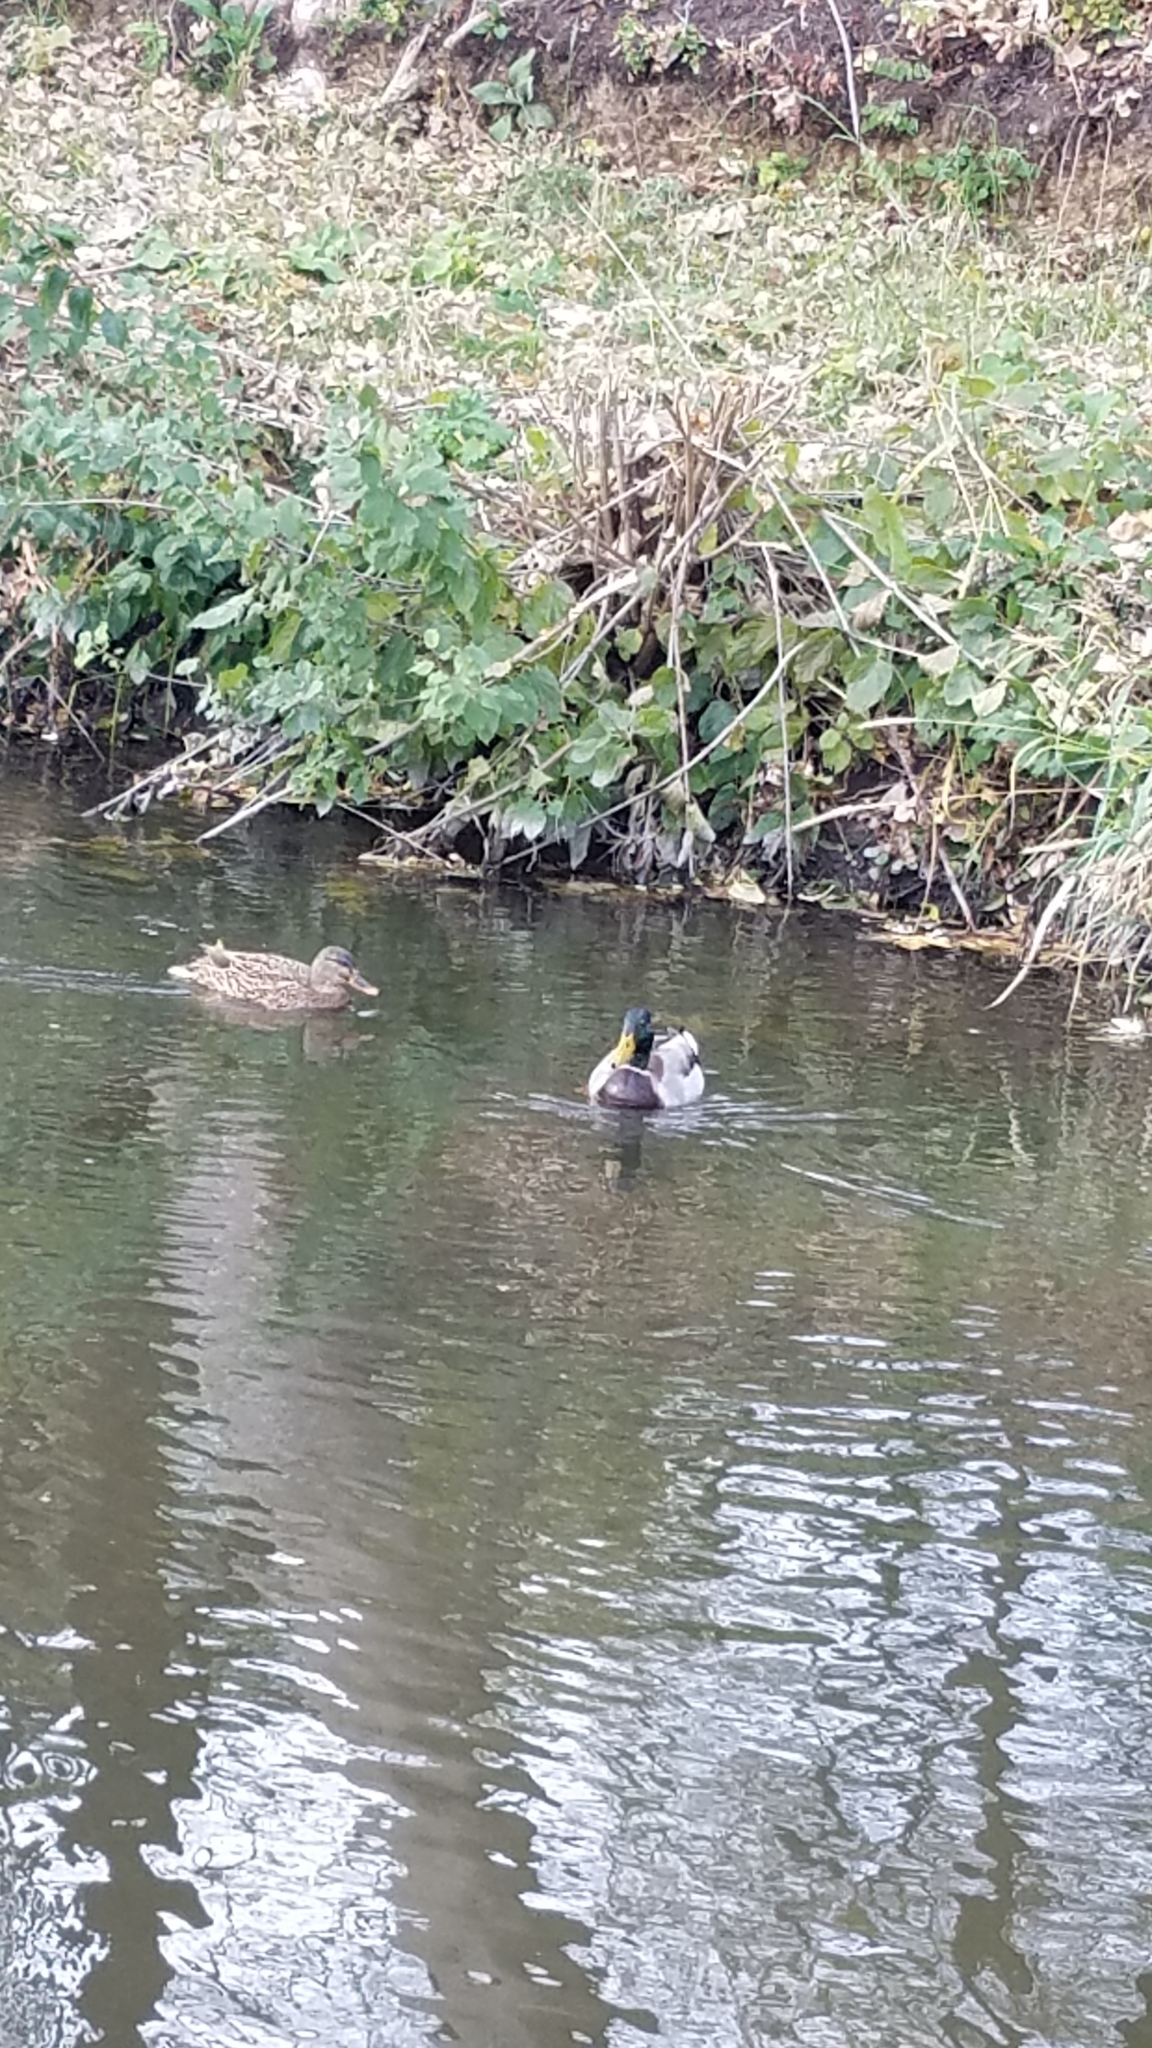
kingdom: Animalia
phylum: Chordata
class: Aves
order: Anseriformes
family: Anatidae
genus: Anas
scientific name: Anas platyrhynchos
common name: Mallard
